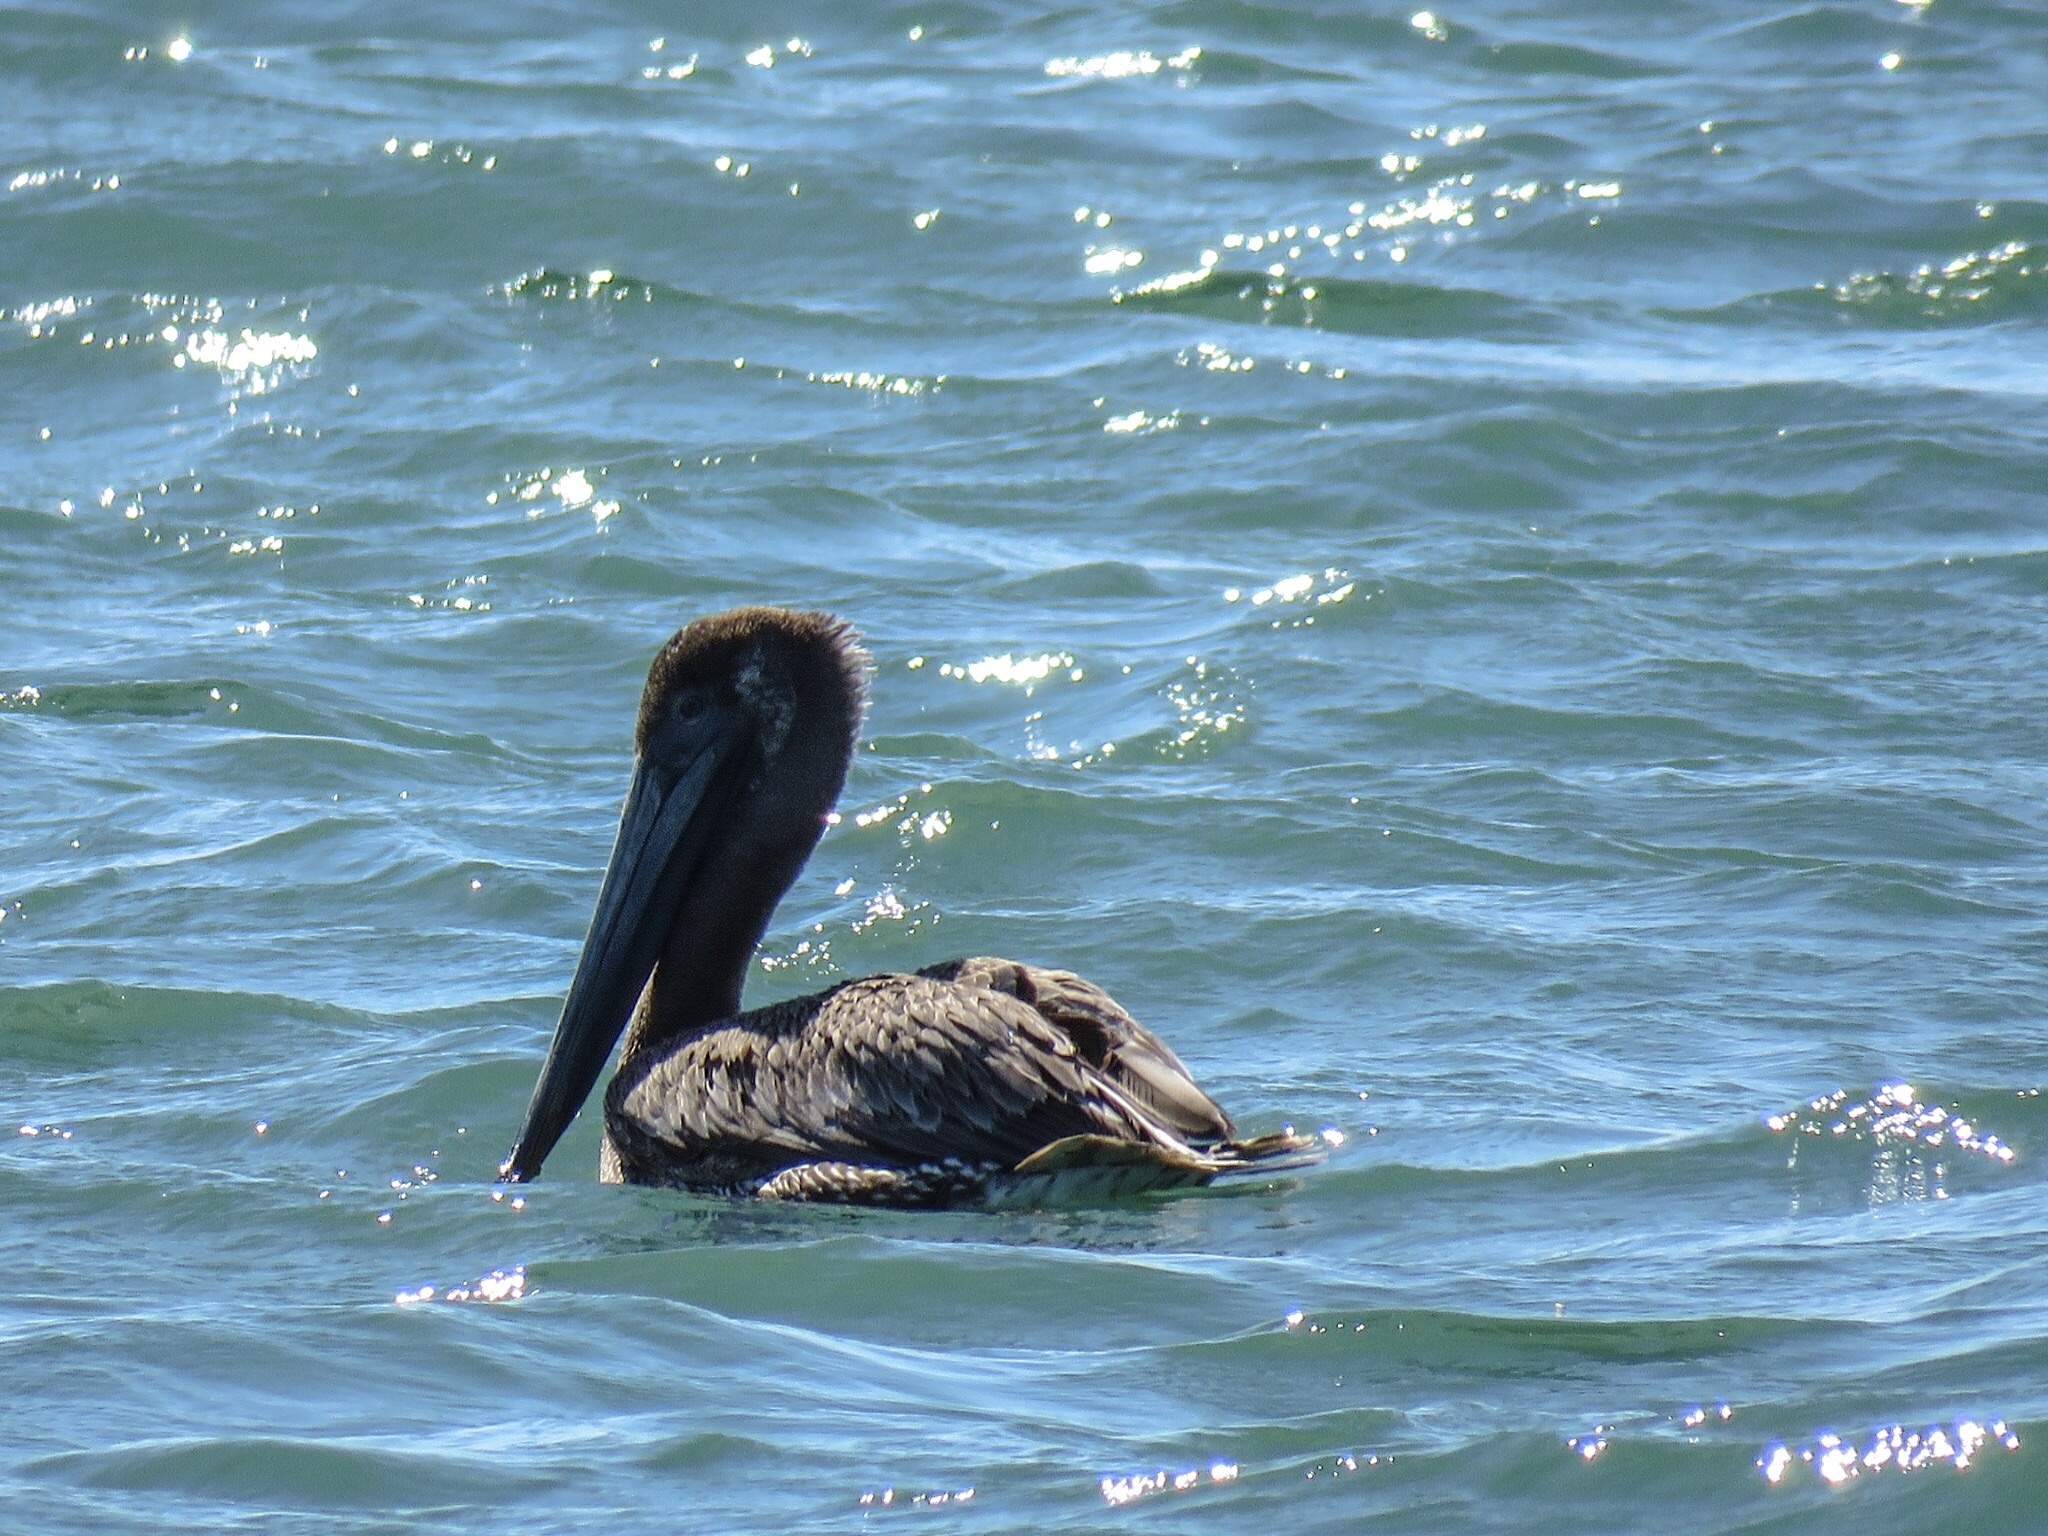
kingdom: Animalia
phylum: Chordata
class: Aves
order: Pelecaniformes
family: Pelecanidae
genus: Pelecanus
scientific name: Pelecanus occidentalis
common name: Brown pelican
